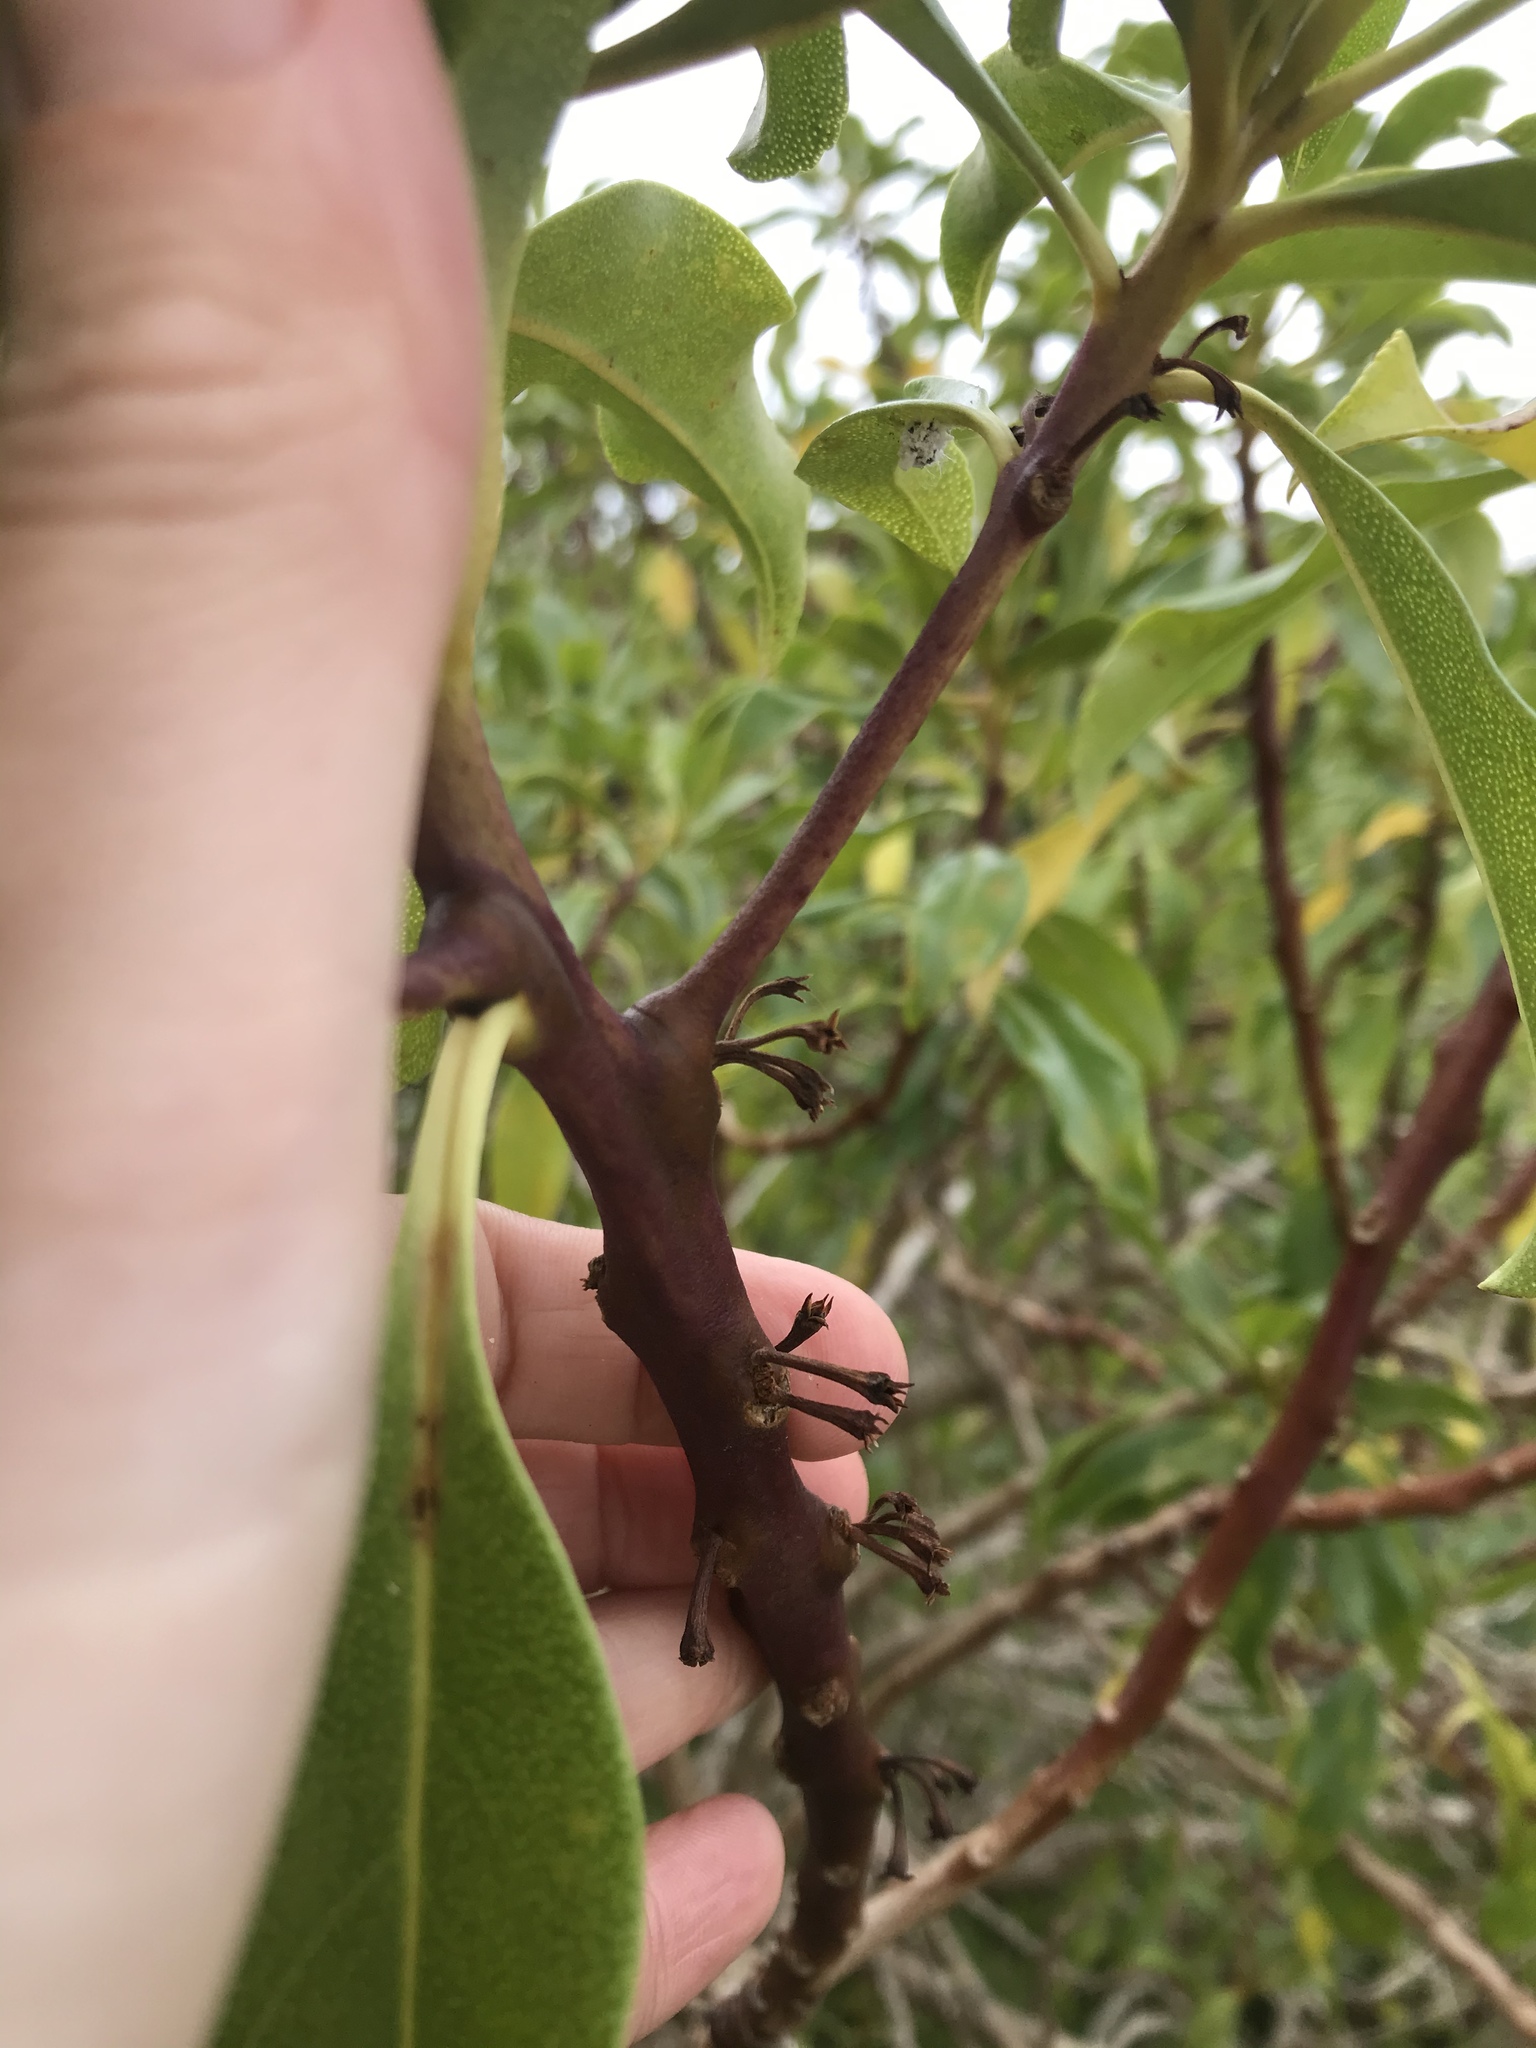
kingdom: Plantae
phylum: Tracheophyta
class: Magnoliopsida
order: Lamiales
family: Scrophulariaceae
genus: Myoporum
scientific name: Myoporum laetum
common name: Ngaio tree
